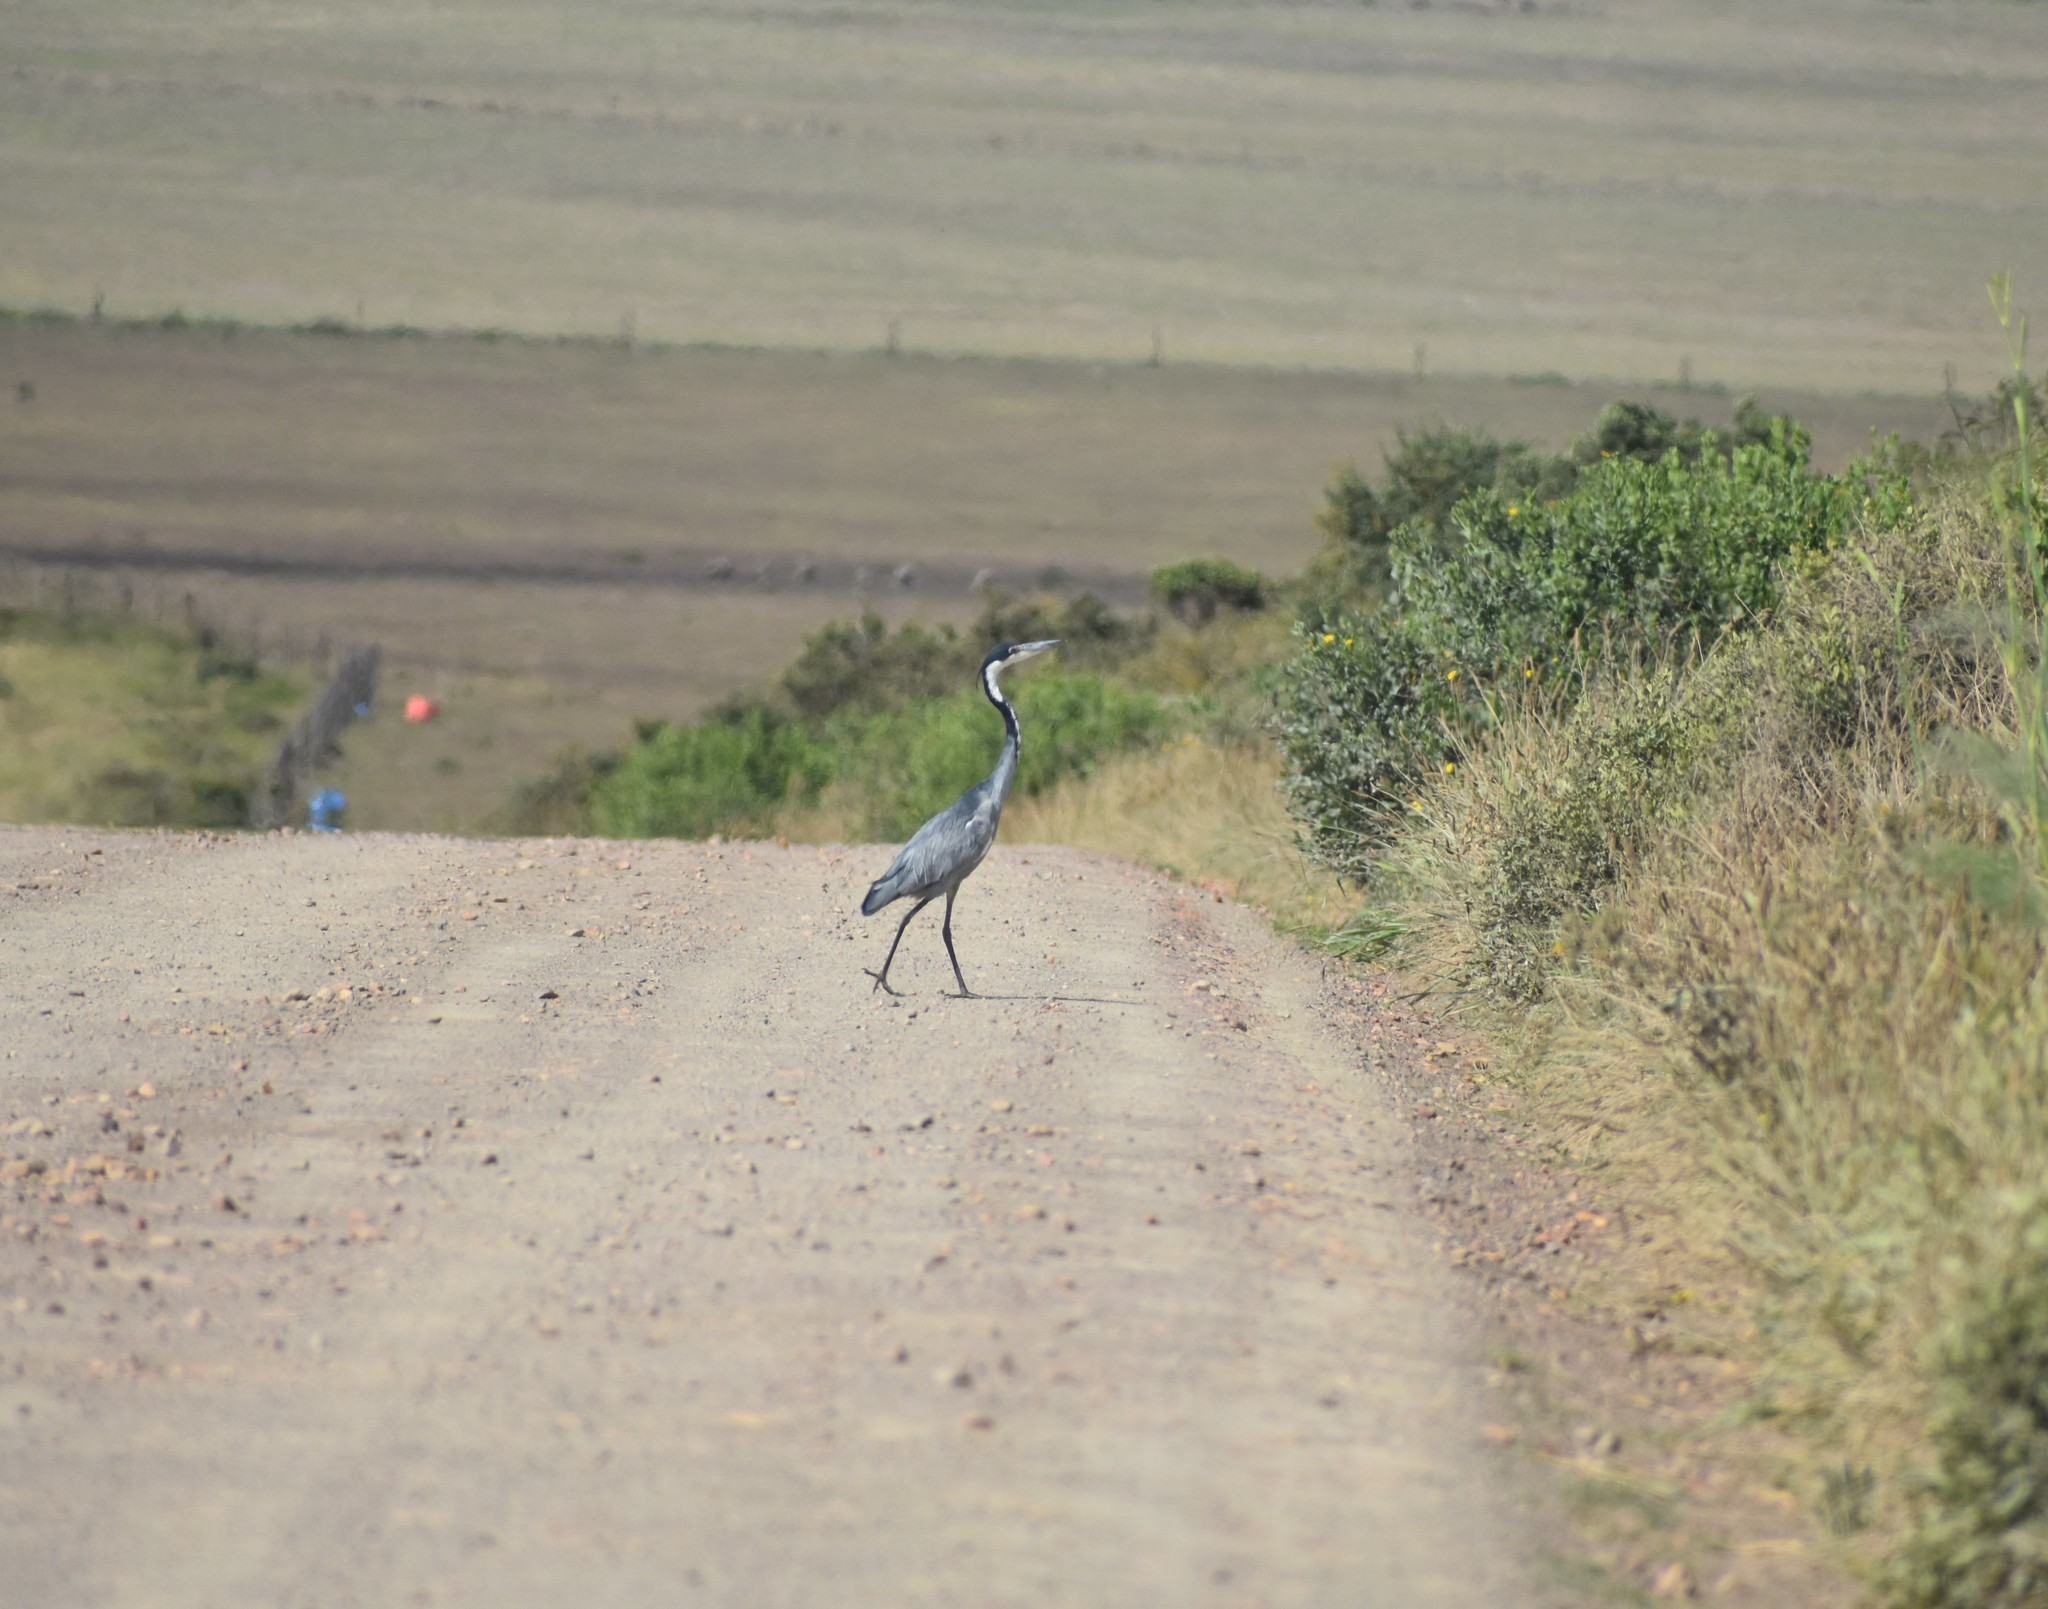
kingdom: Animalia
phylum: Chordata
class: Aves
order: Pelecaniformes
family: Ardeidae
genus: Ardea
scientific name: Ardea melanocephala
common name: Black-headed heron
